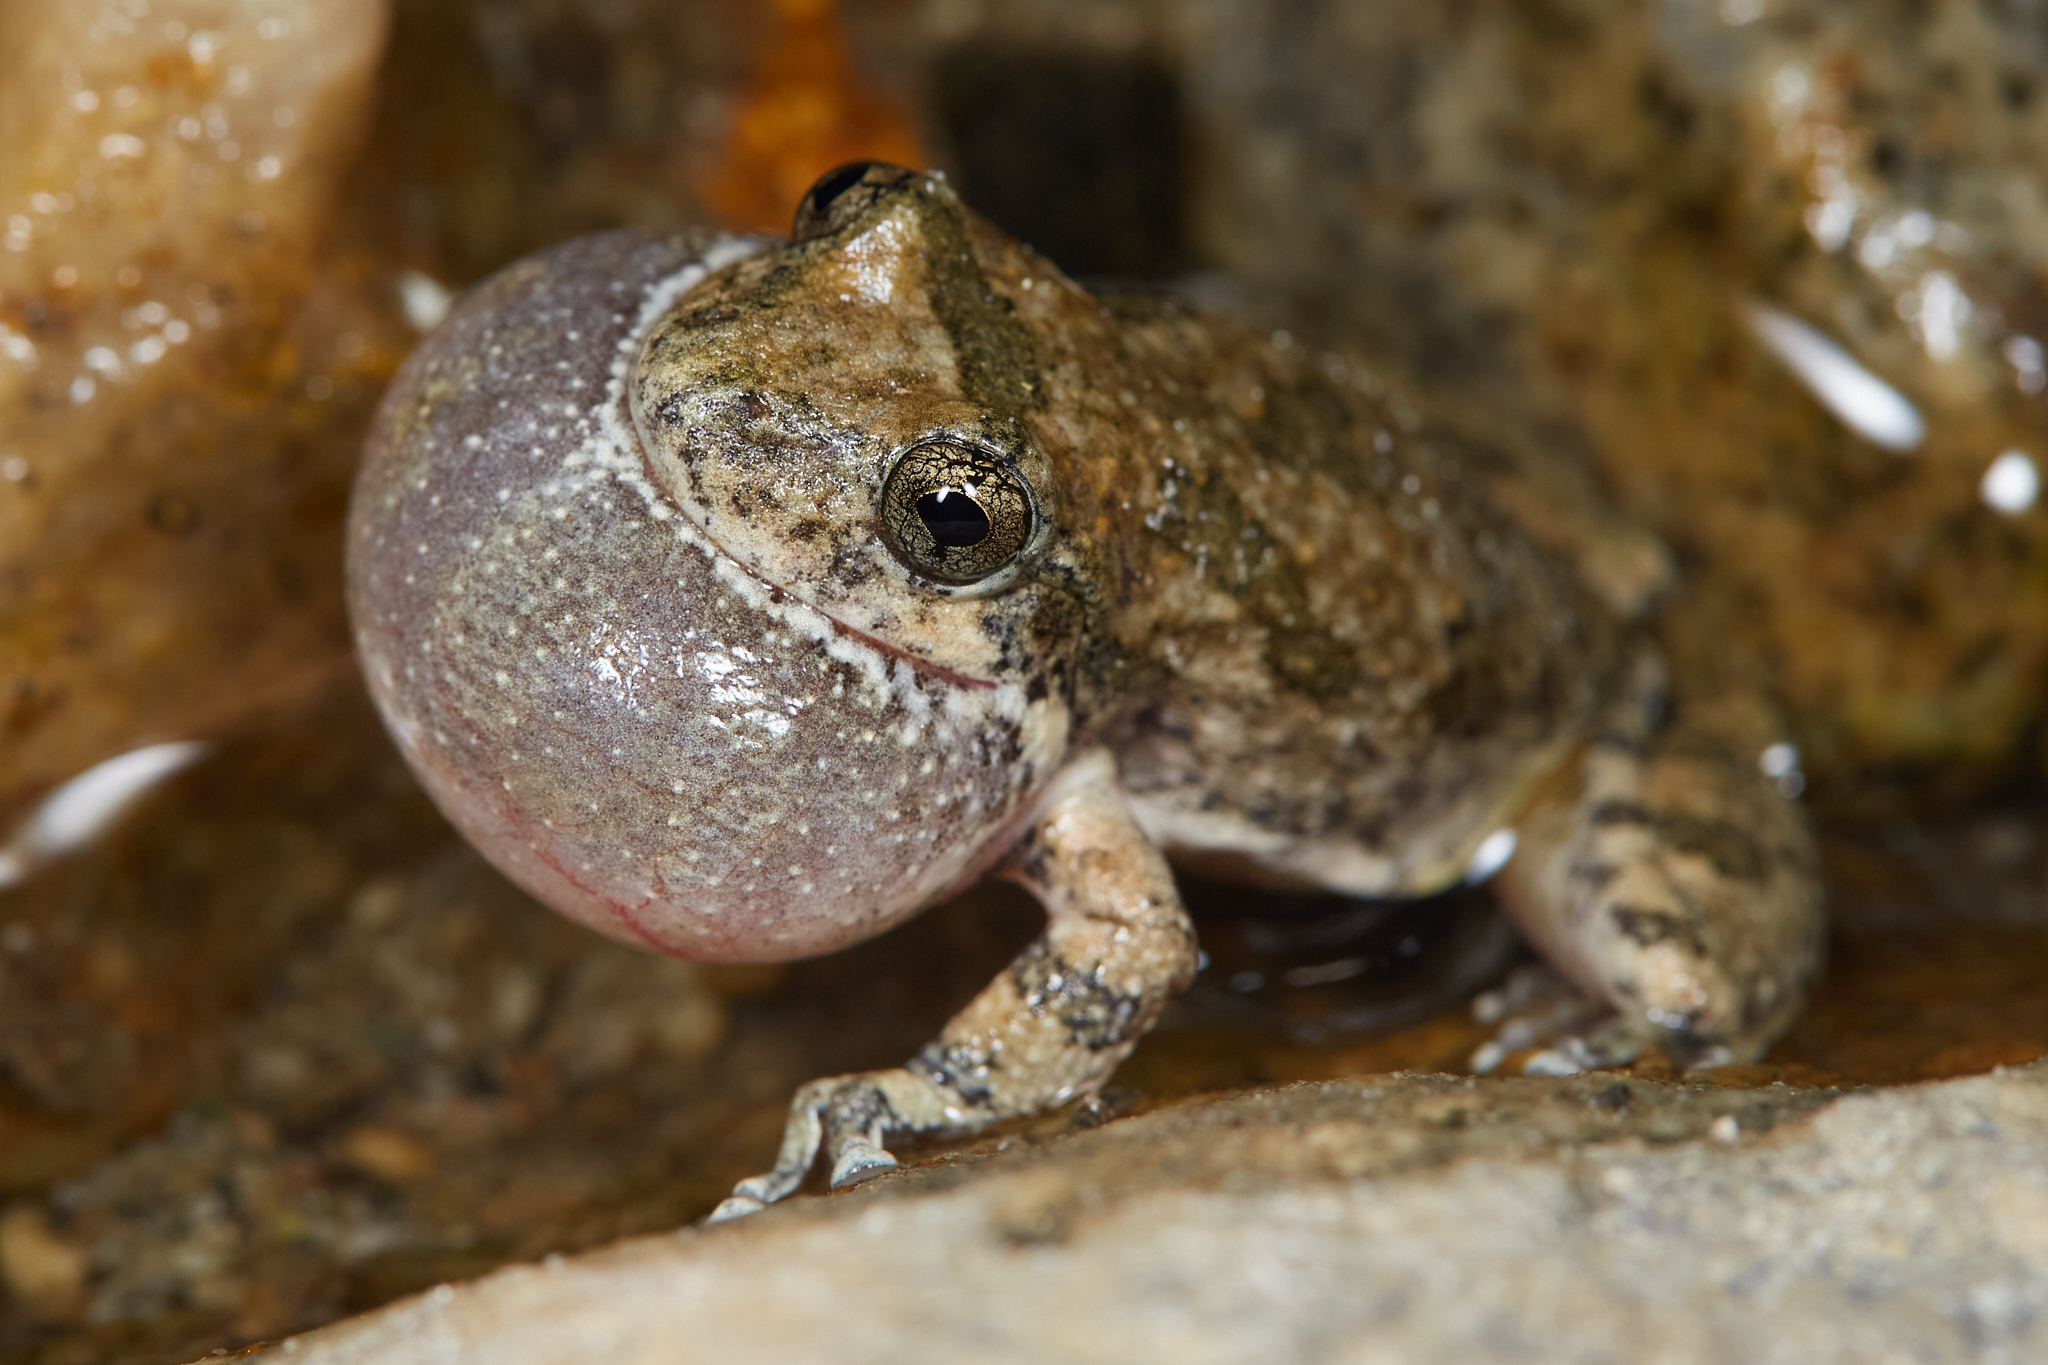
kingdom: Animalia
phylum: Chordata
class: Amphibia
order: Anura
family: Hylidae
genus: Pseudacris
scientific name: Pseudacris cadaverina
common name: California chorus frog
